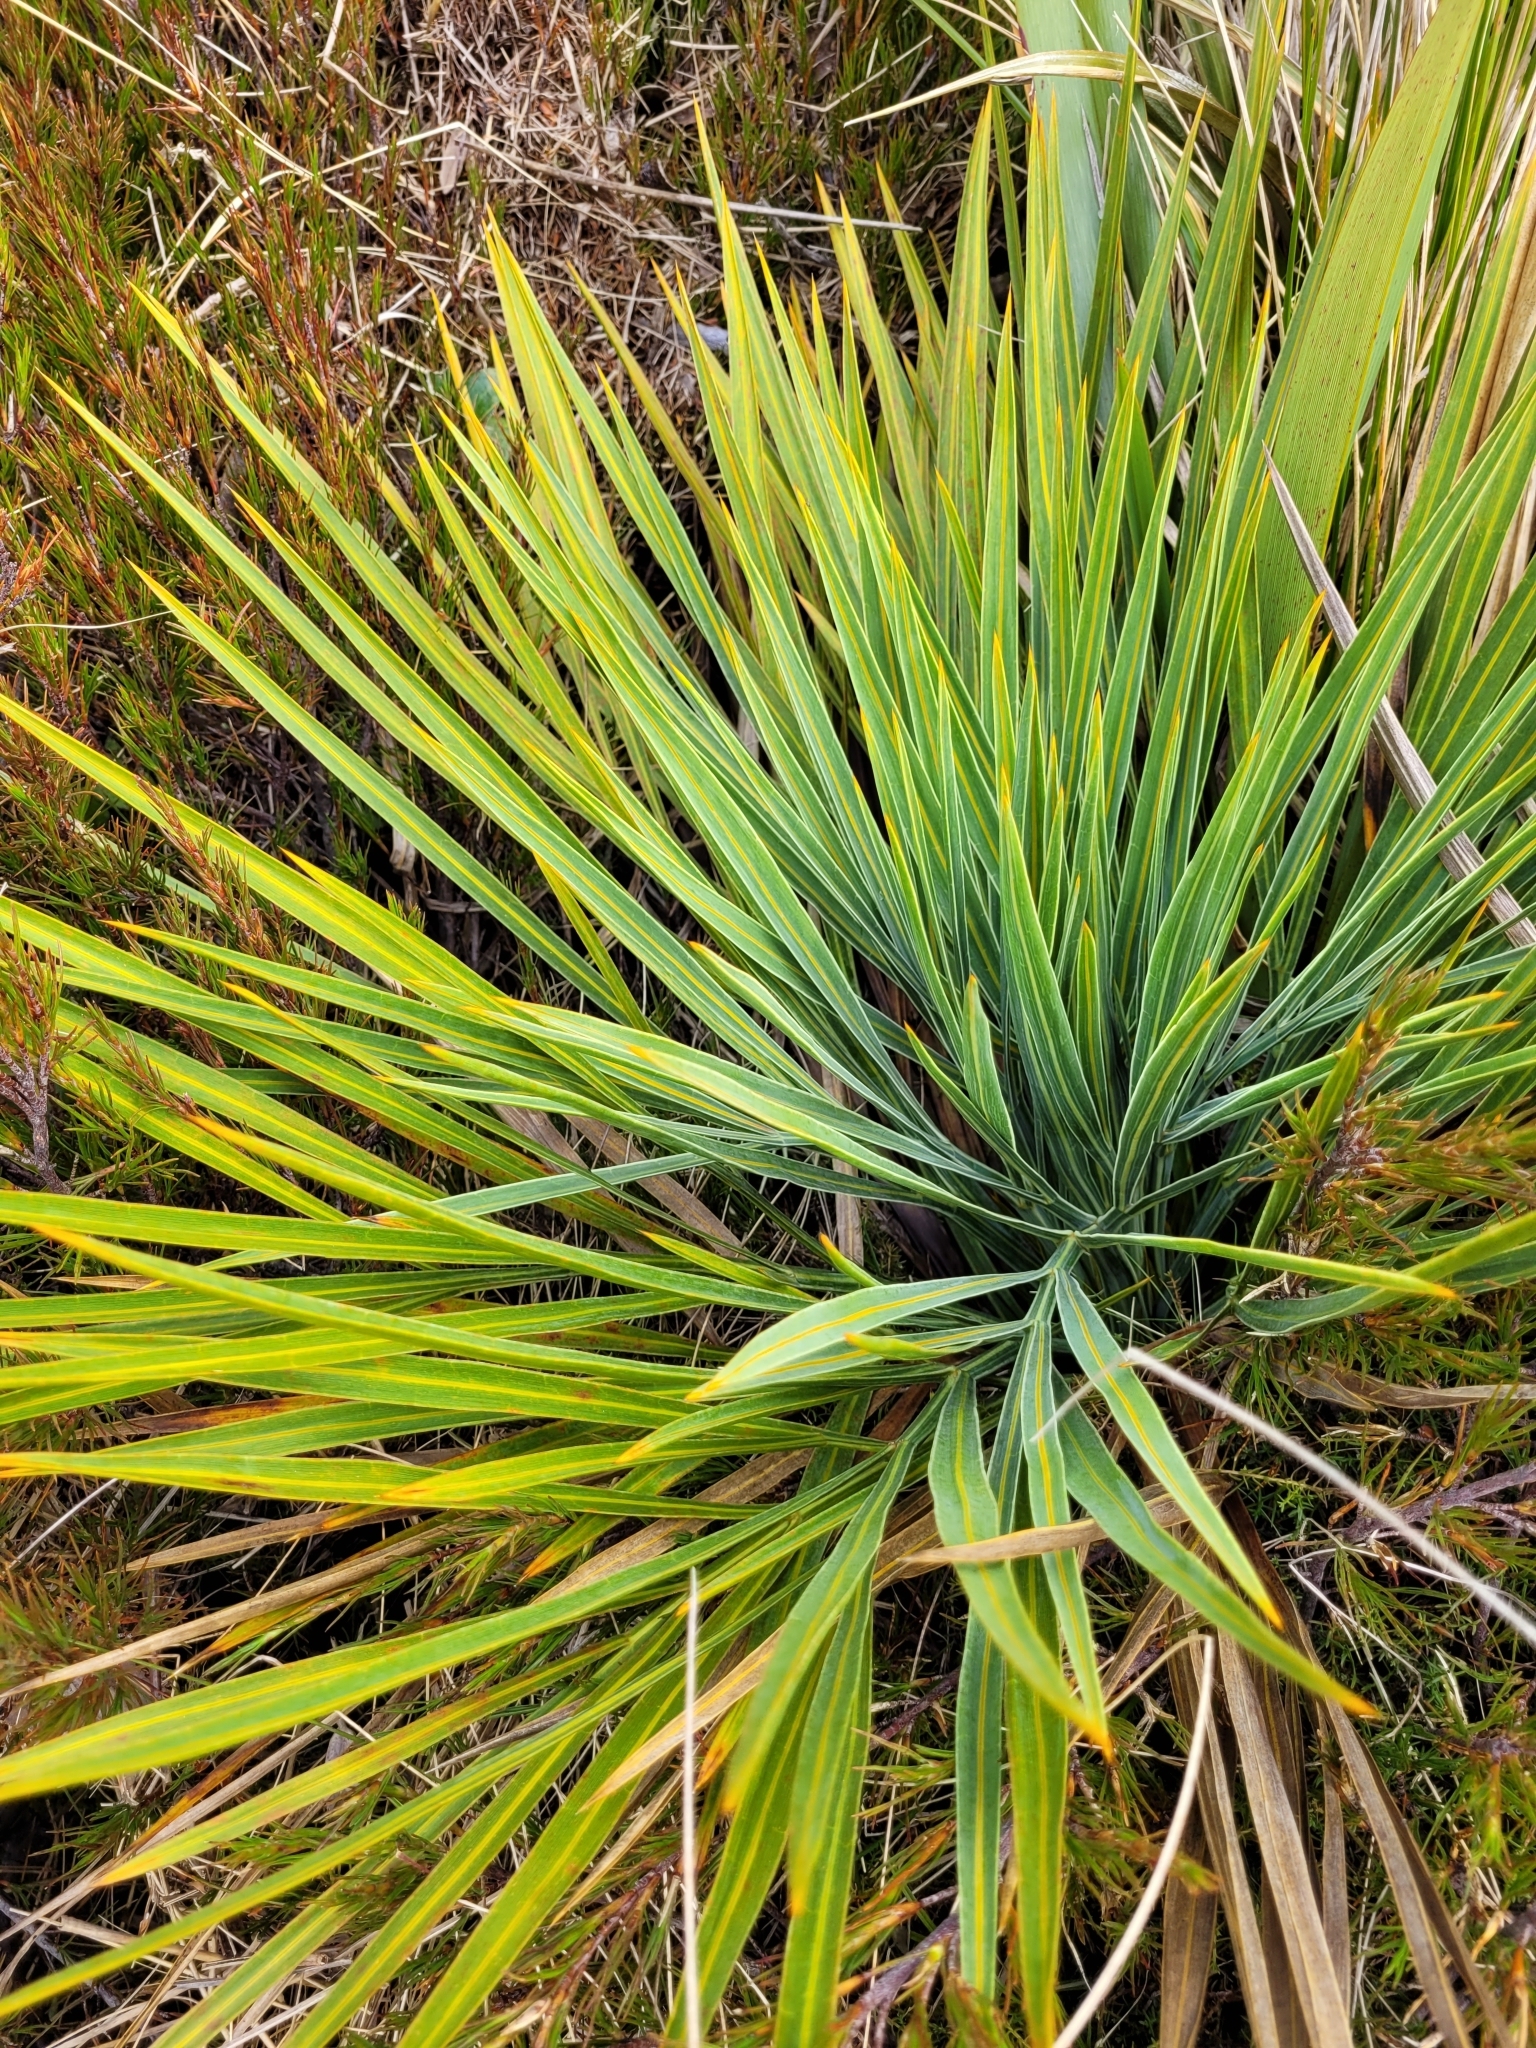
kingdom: Plantae
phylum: Tracheophyta
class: Magnoliopsida
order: Apiales
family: Apiaceae
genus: Aciphylla
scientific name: Aciphylla colensoi
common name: Colenso's spaniard
